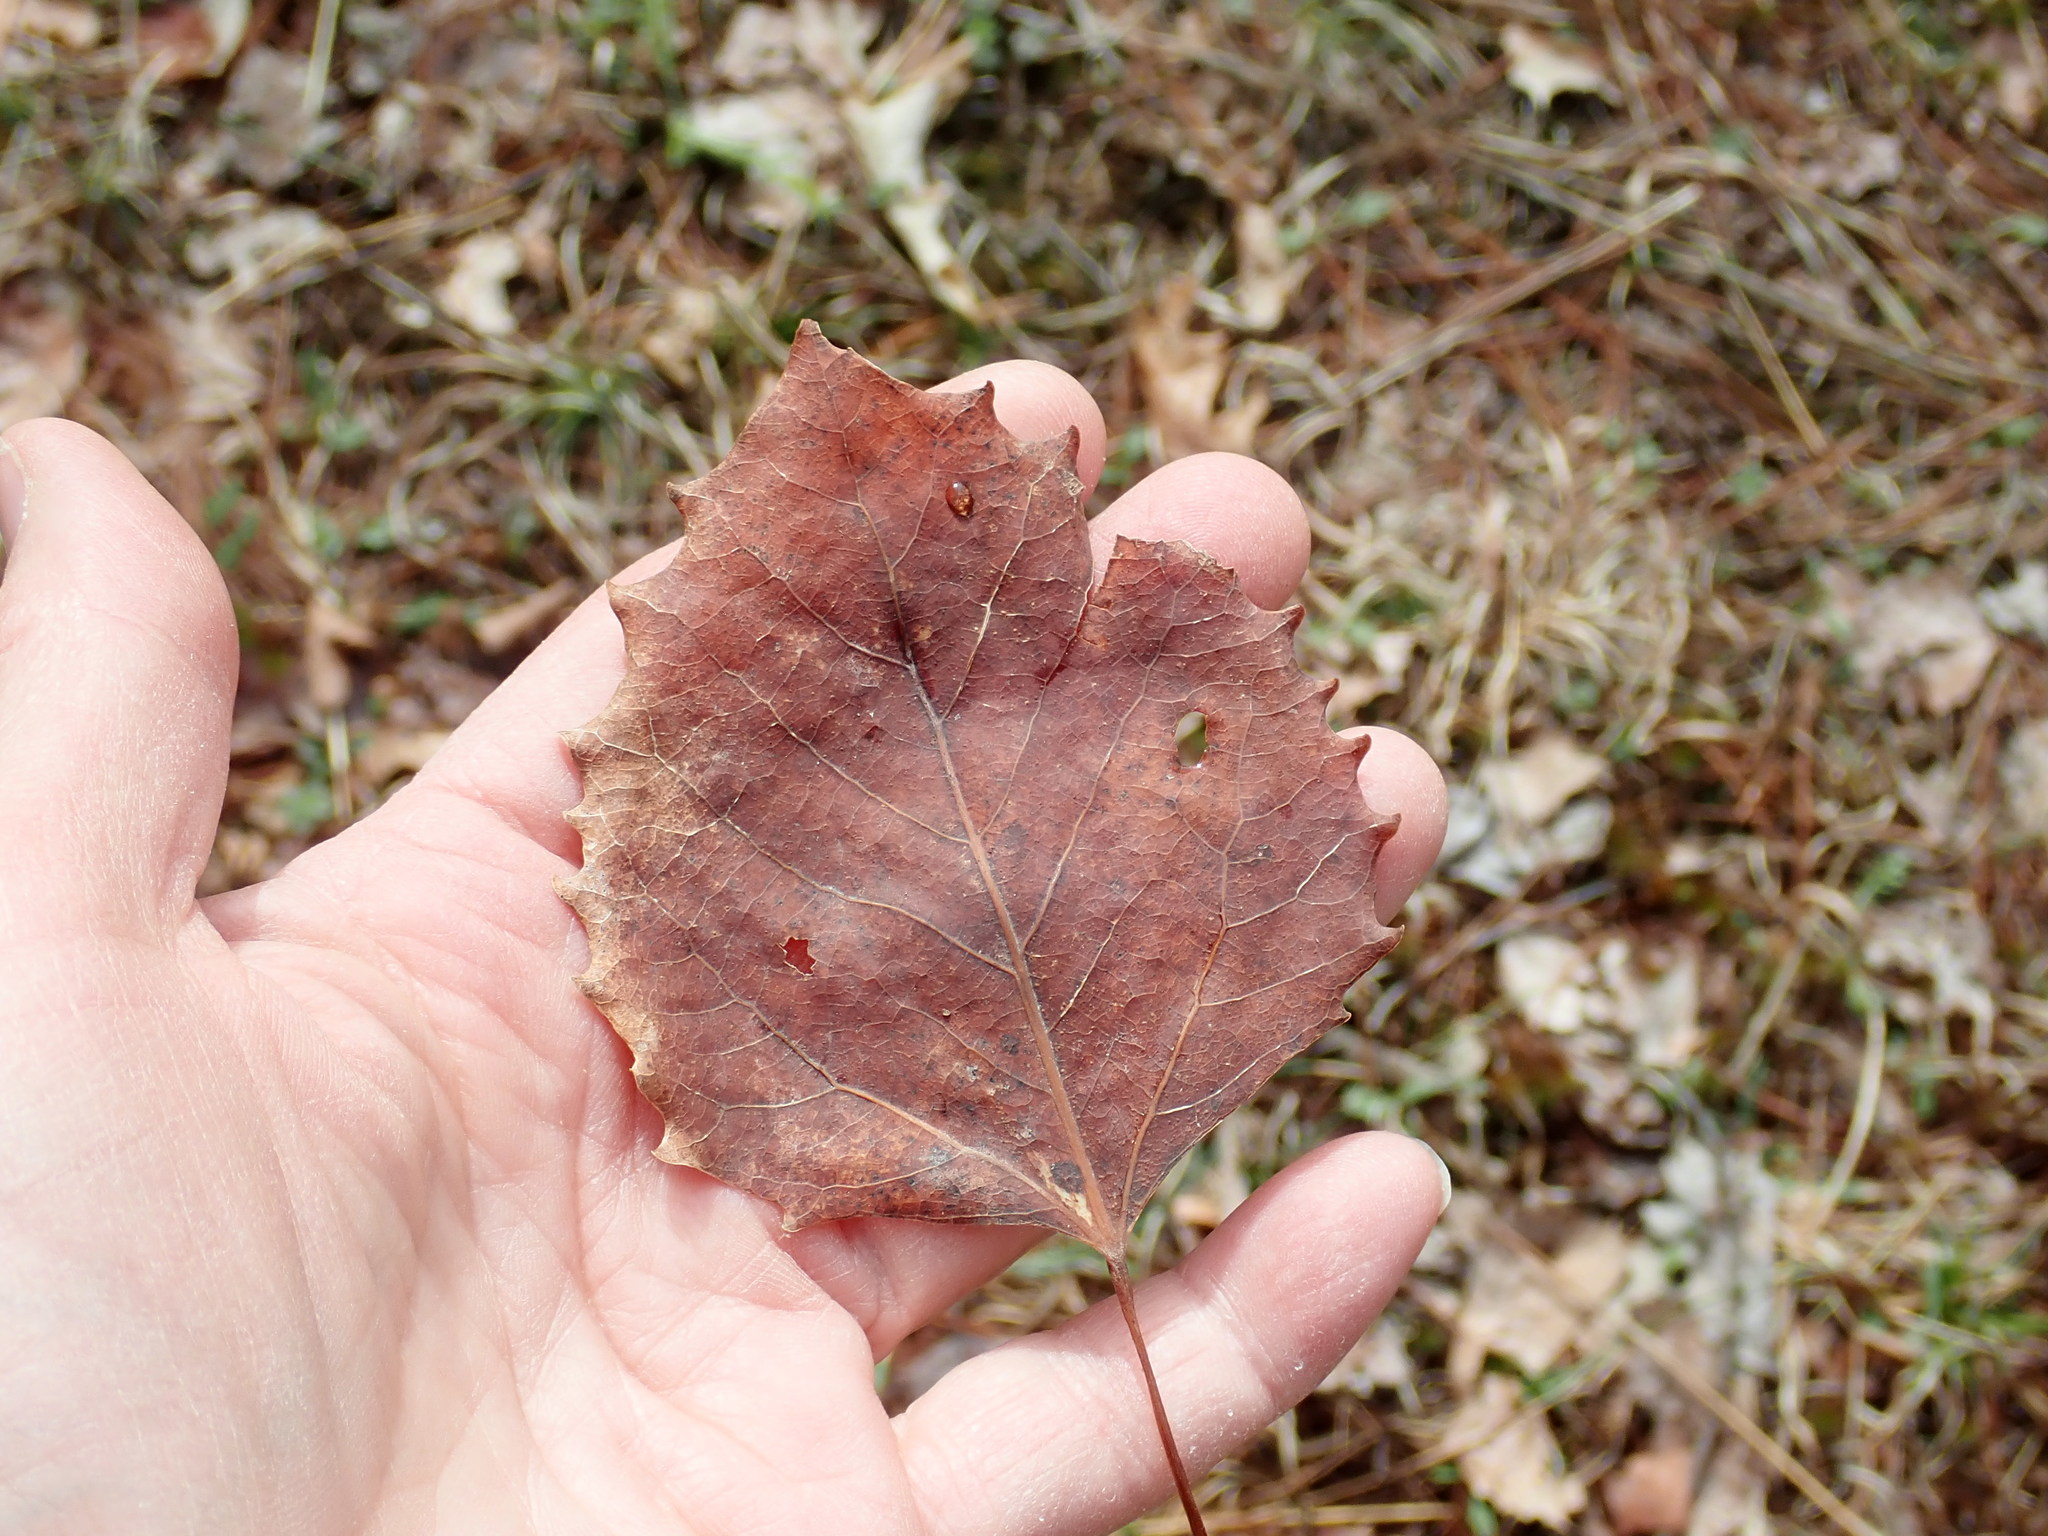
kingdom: Plantae
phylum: Tracheophyta
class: Magnoliopsida
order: Malpighiales
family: Salicaceae
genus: Populus
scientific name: Populus grandidentata
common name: Bigtooth aspen
